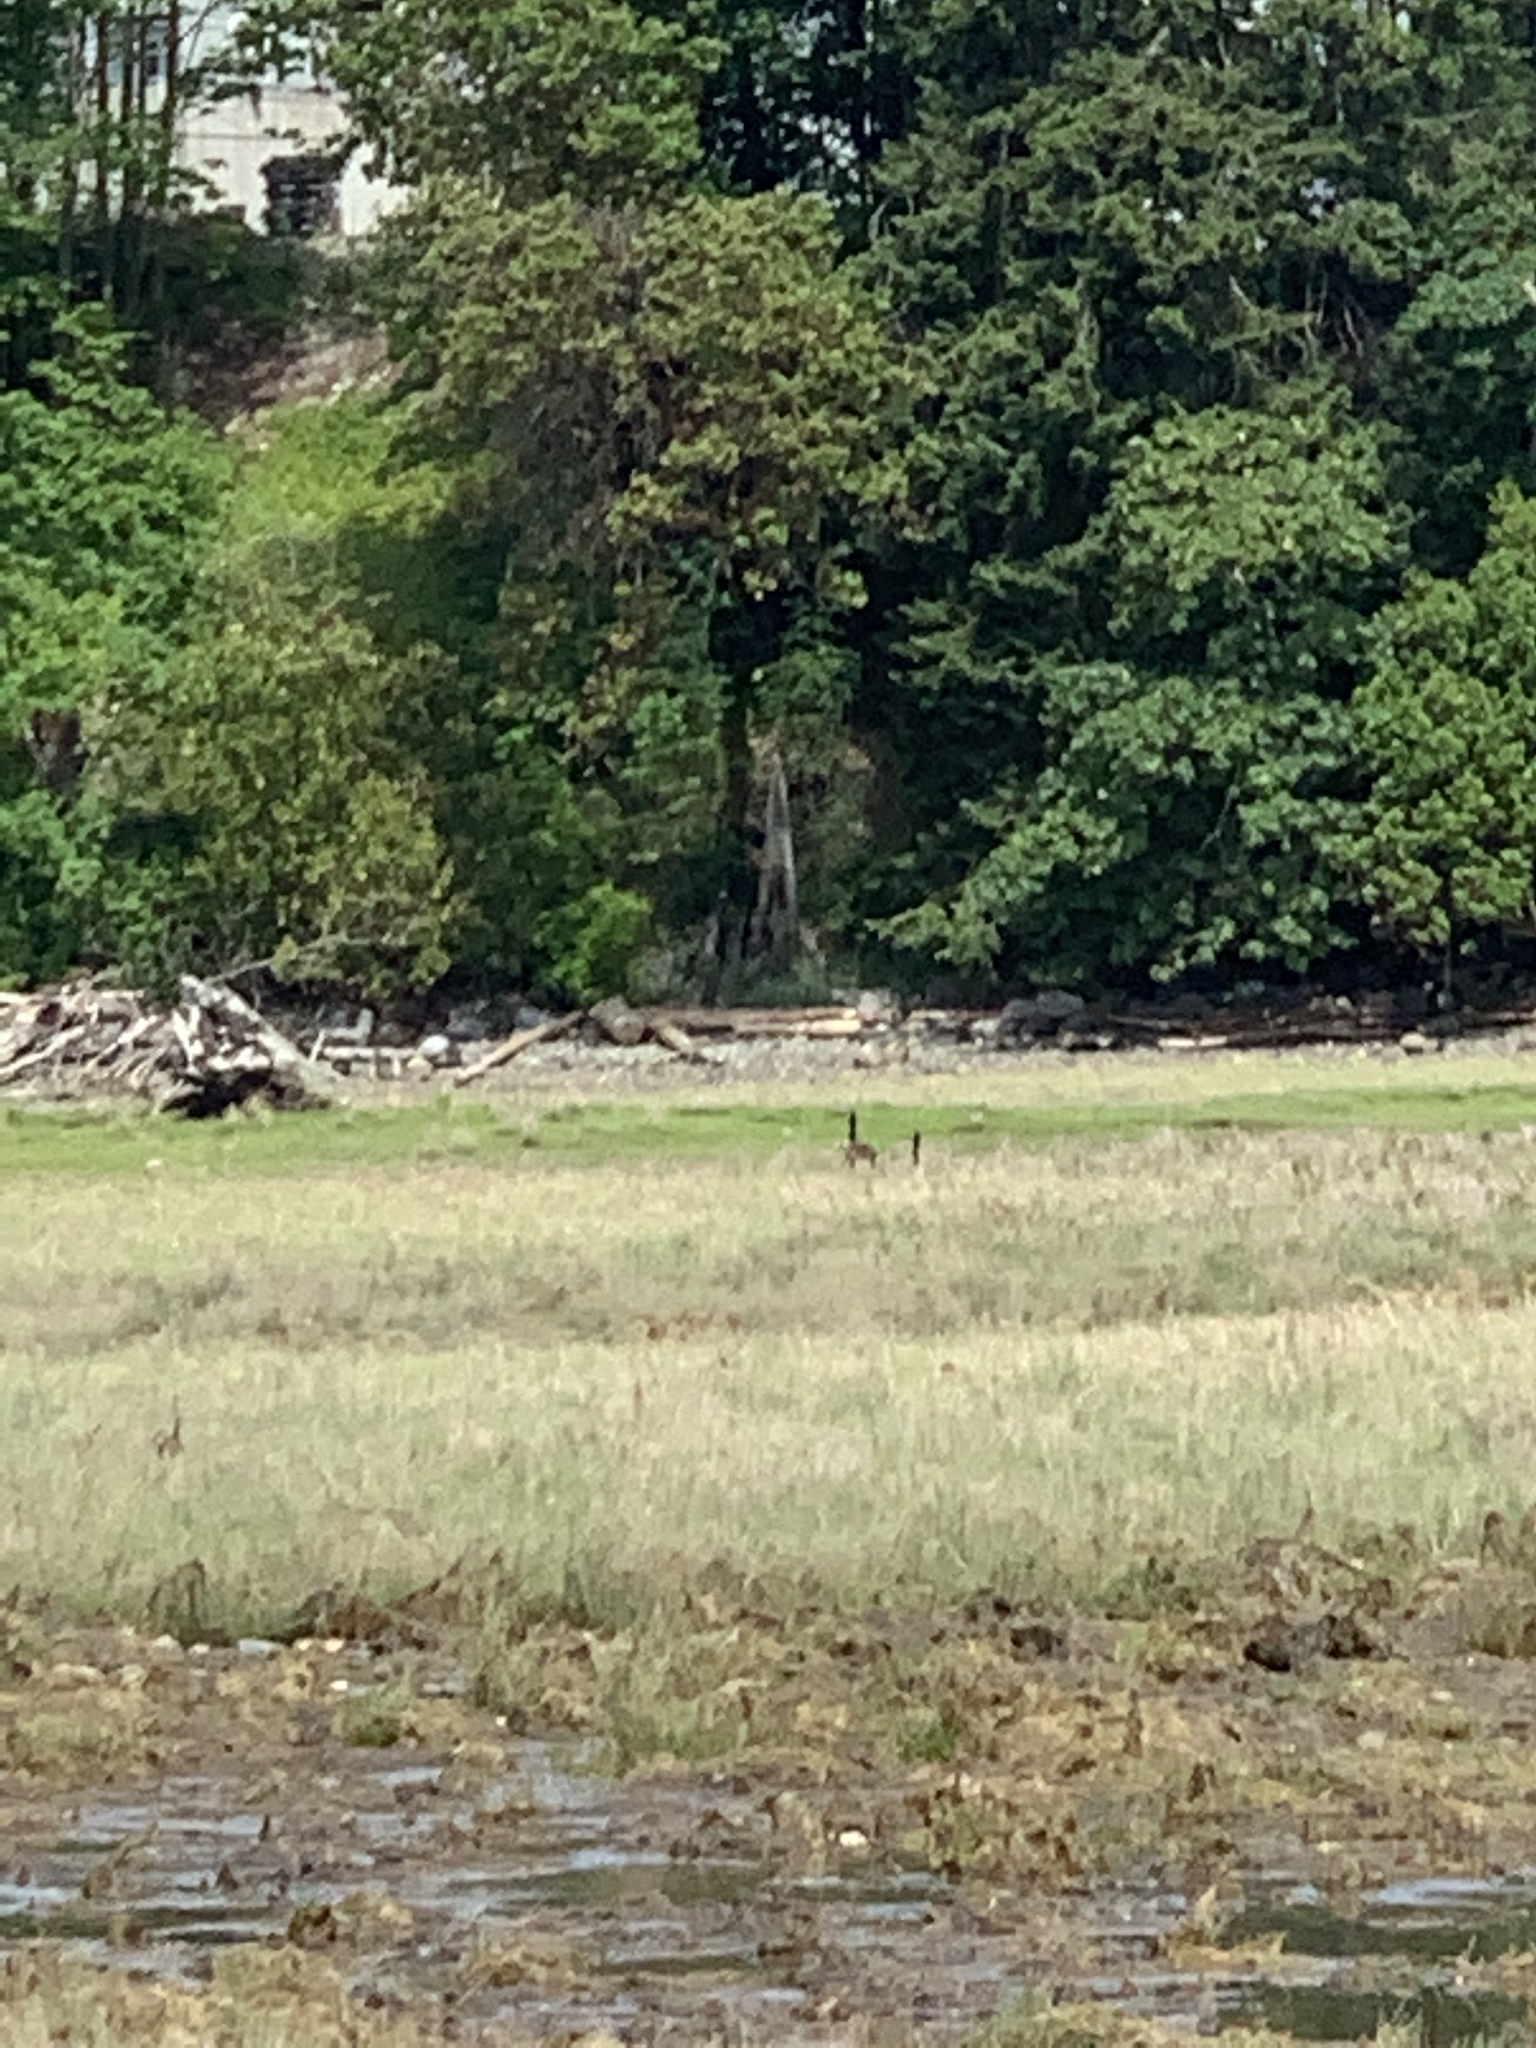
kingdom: Animalia
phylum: Chordata
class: Aves
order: Anseriformes
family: Anatidae
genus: Branta
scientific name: Branta canadensis
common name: Canada goose
